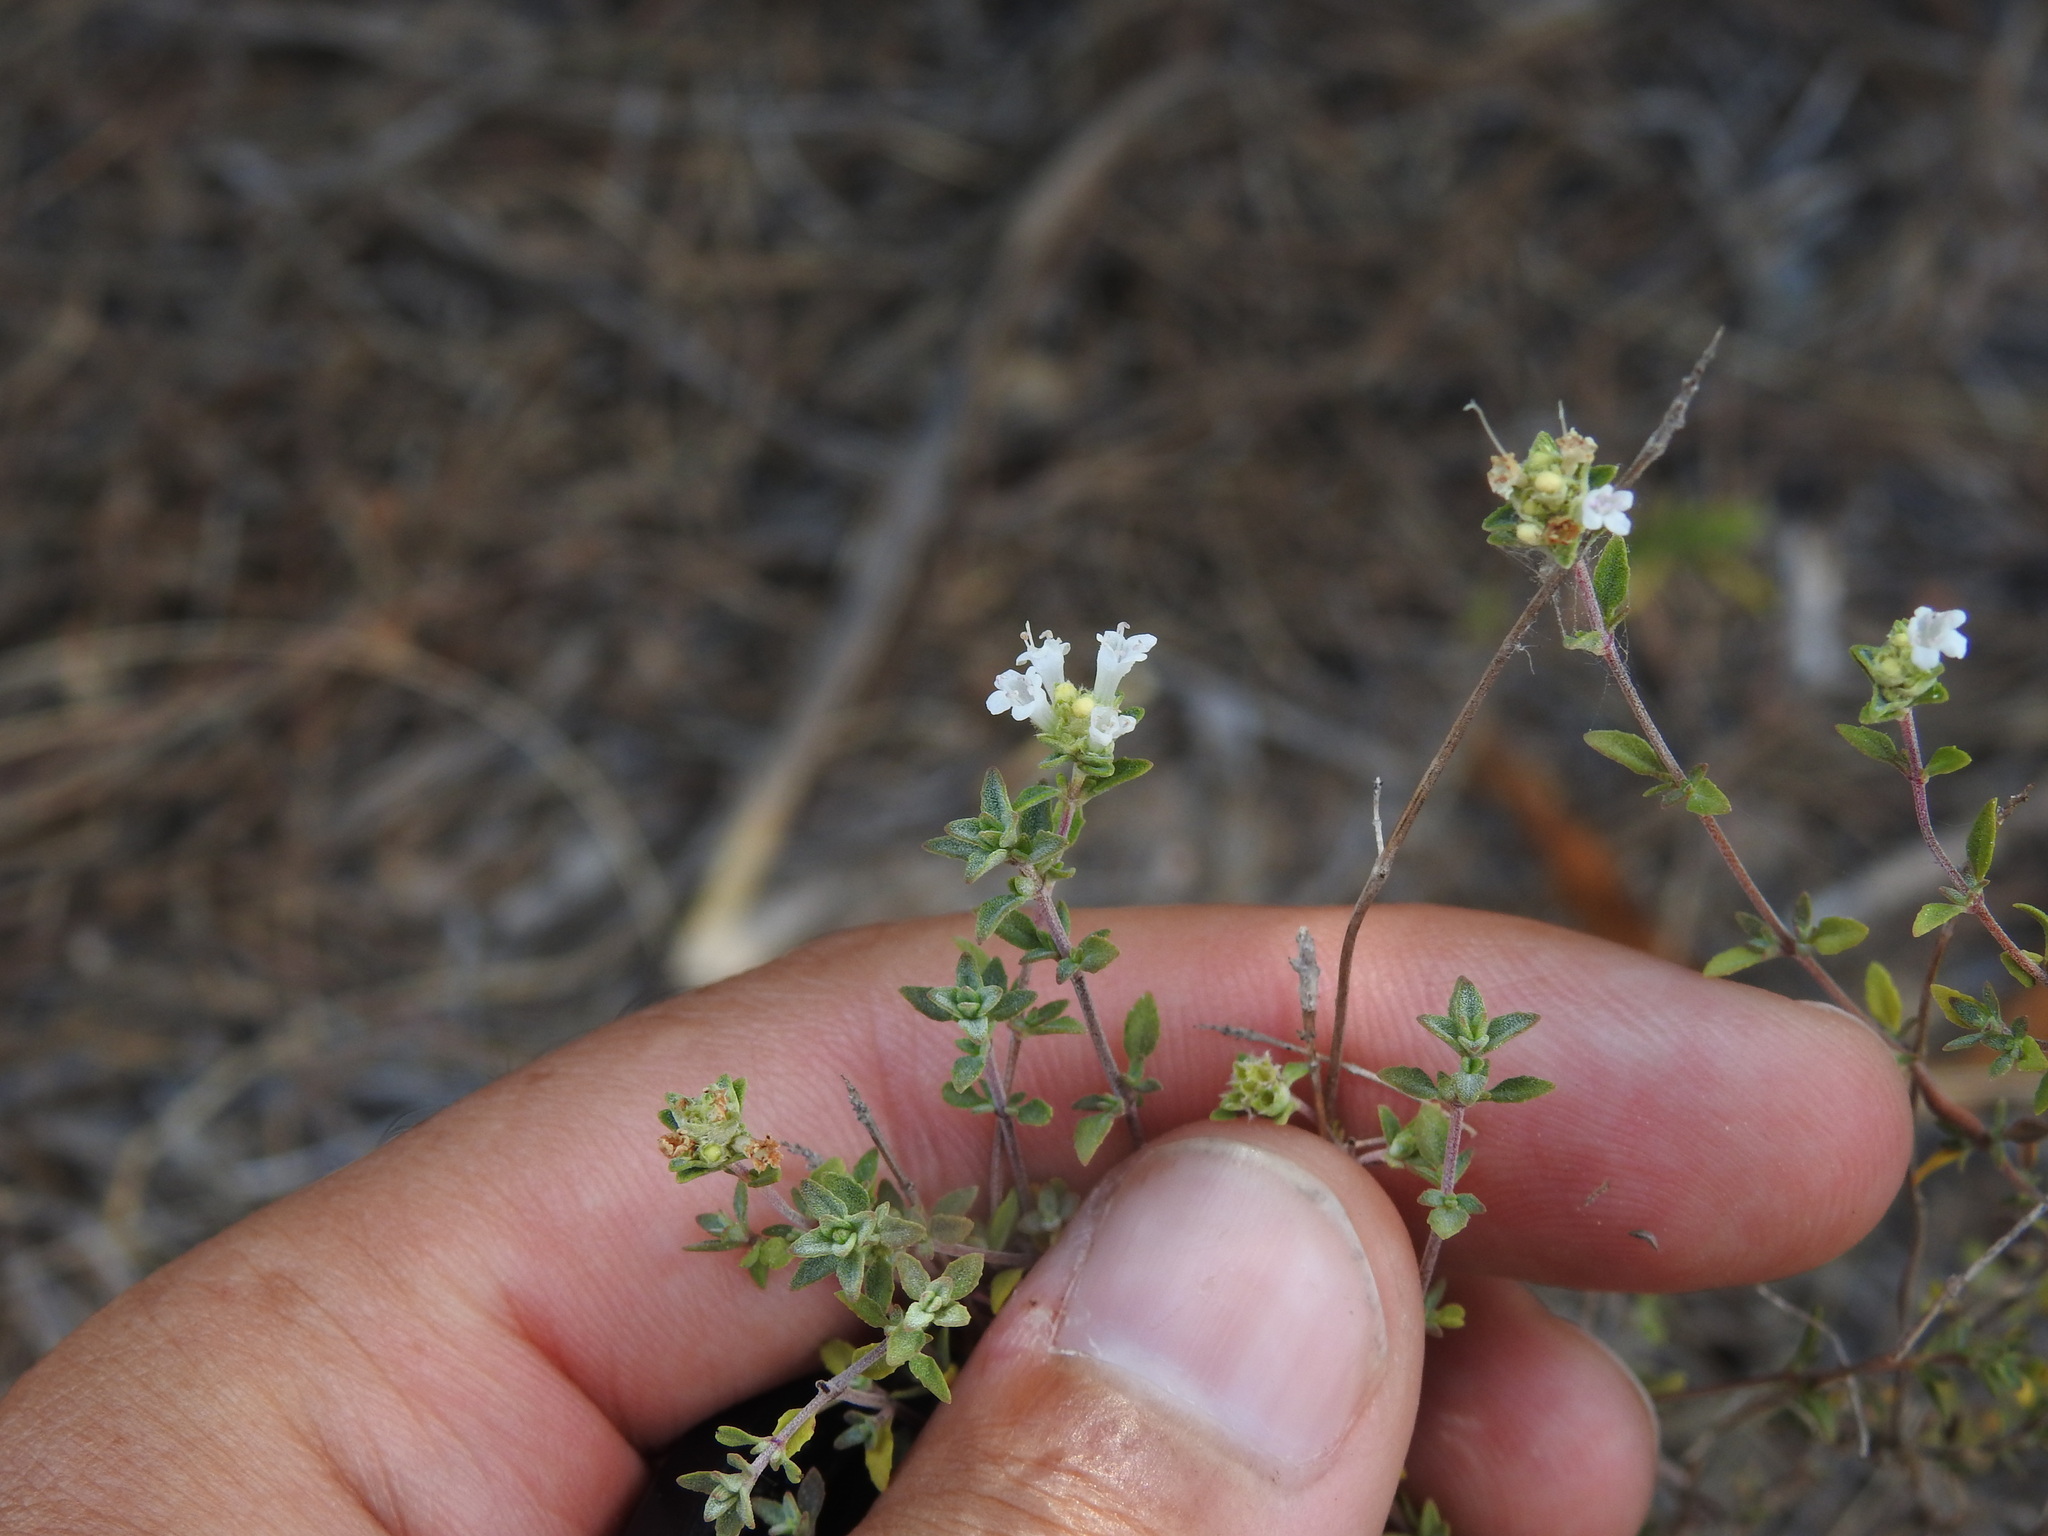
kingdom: Plantae
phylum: Tracheophyta
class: Magnoliopsida
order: Lamiales
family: Lamiaceae
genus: Thymus
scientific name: Thymus albicans
